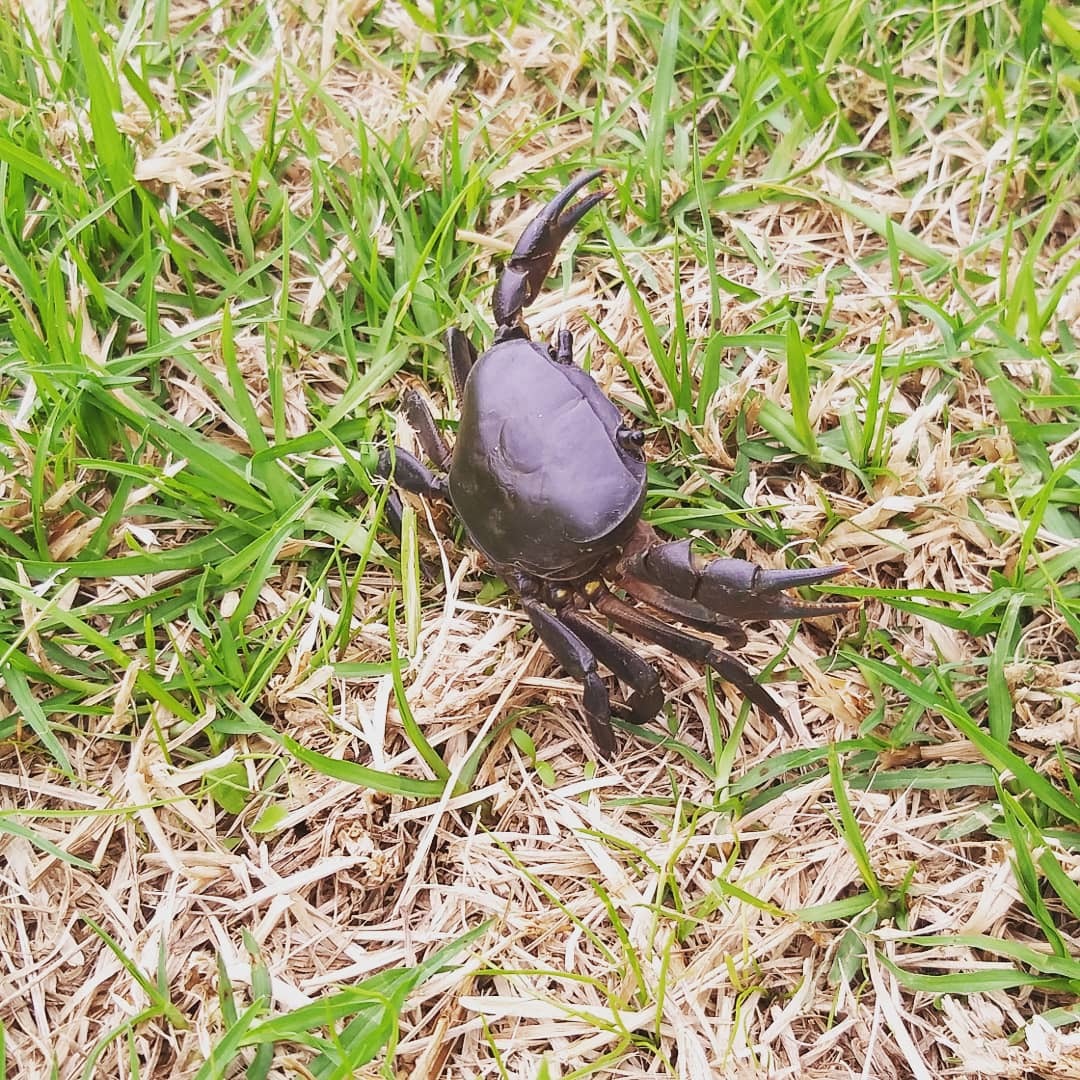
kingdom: Animalia
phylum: Arthropoda
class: Malacostraca
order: Decapoda
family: Potamonautidae
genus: Potamonautes
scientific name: Potamonautes perlatus
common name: Cape river crab
